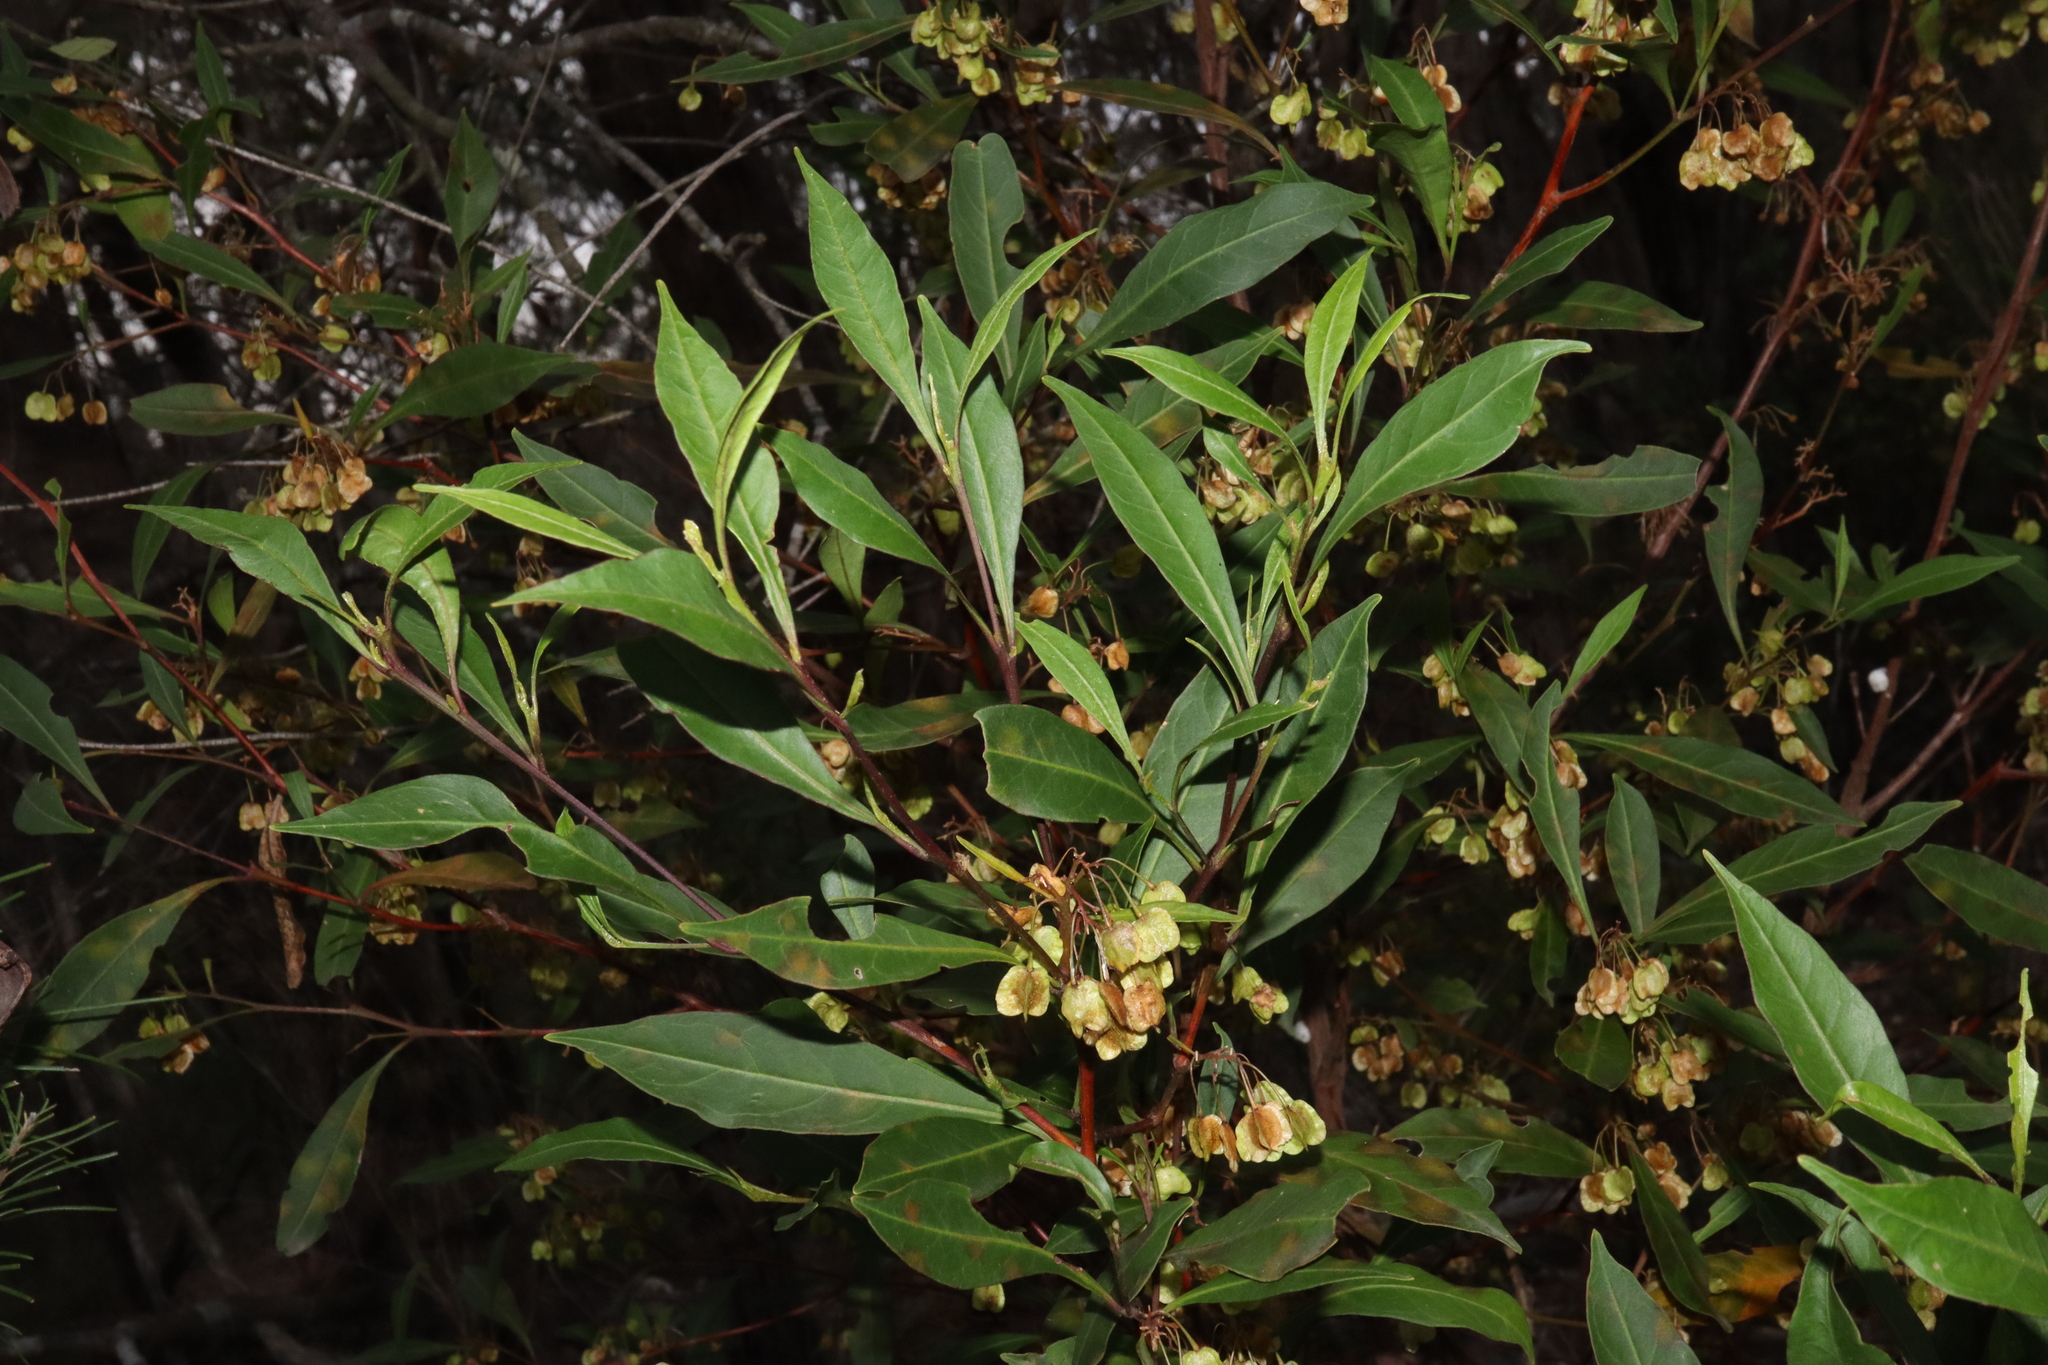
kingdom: Plantae
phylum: Tracheophyta
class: Magnoliopsida
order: Sapindales
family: Sapindaceae
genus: Dodonaea
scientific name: Dodonaea triquetra
